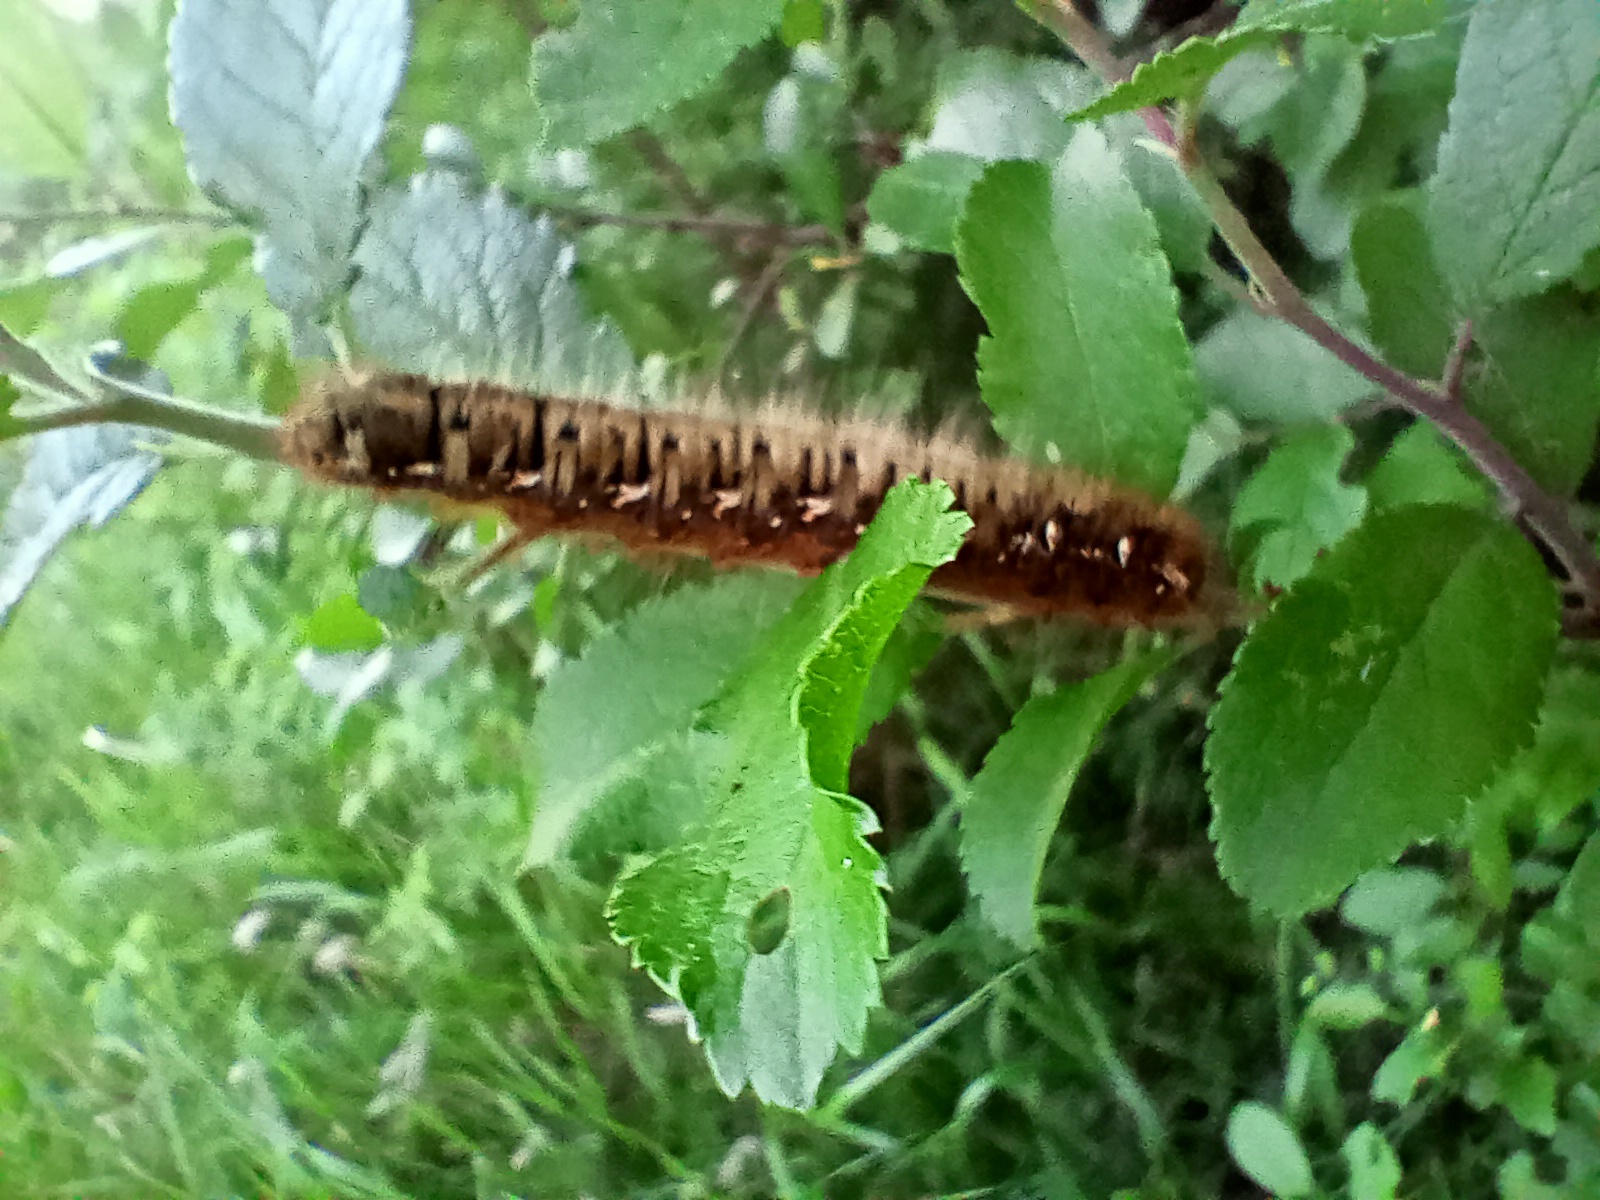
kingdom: Animalia
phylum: Arthropoda
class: Insecta
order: Lepidoptera
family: Lasiocampidae
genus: Lasiocampa
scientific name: Lasiocampa quercus
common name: Oak eggar
